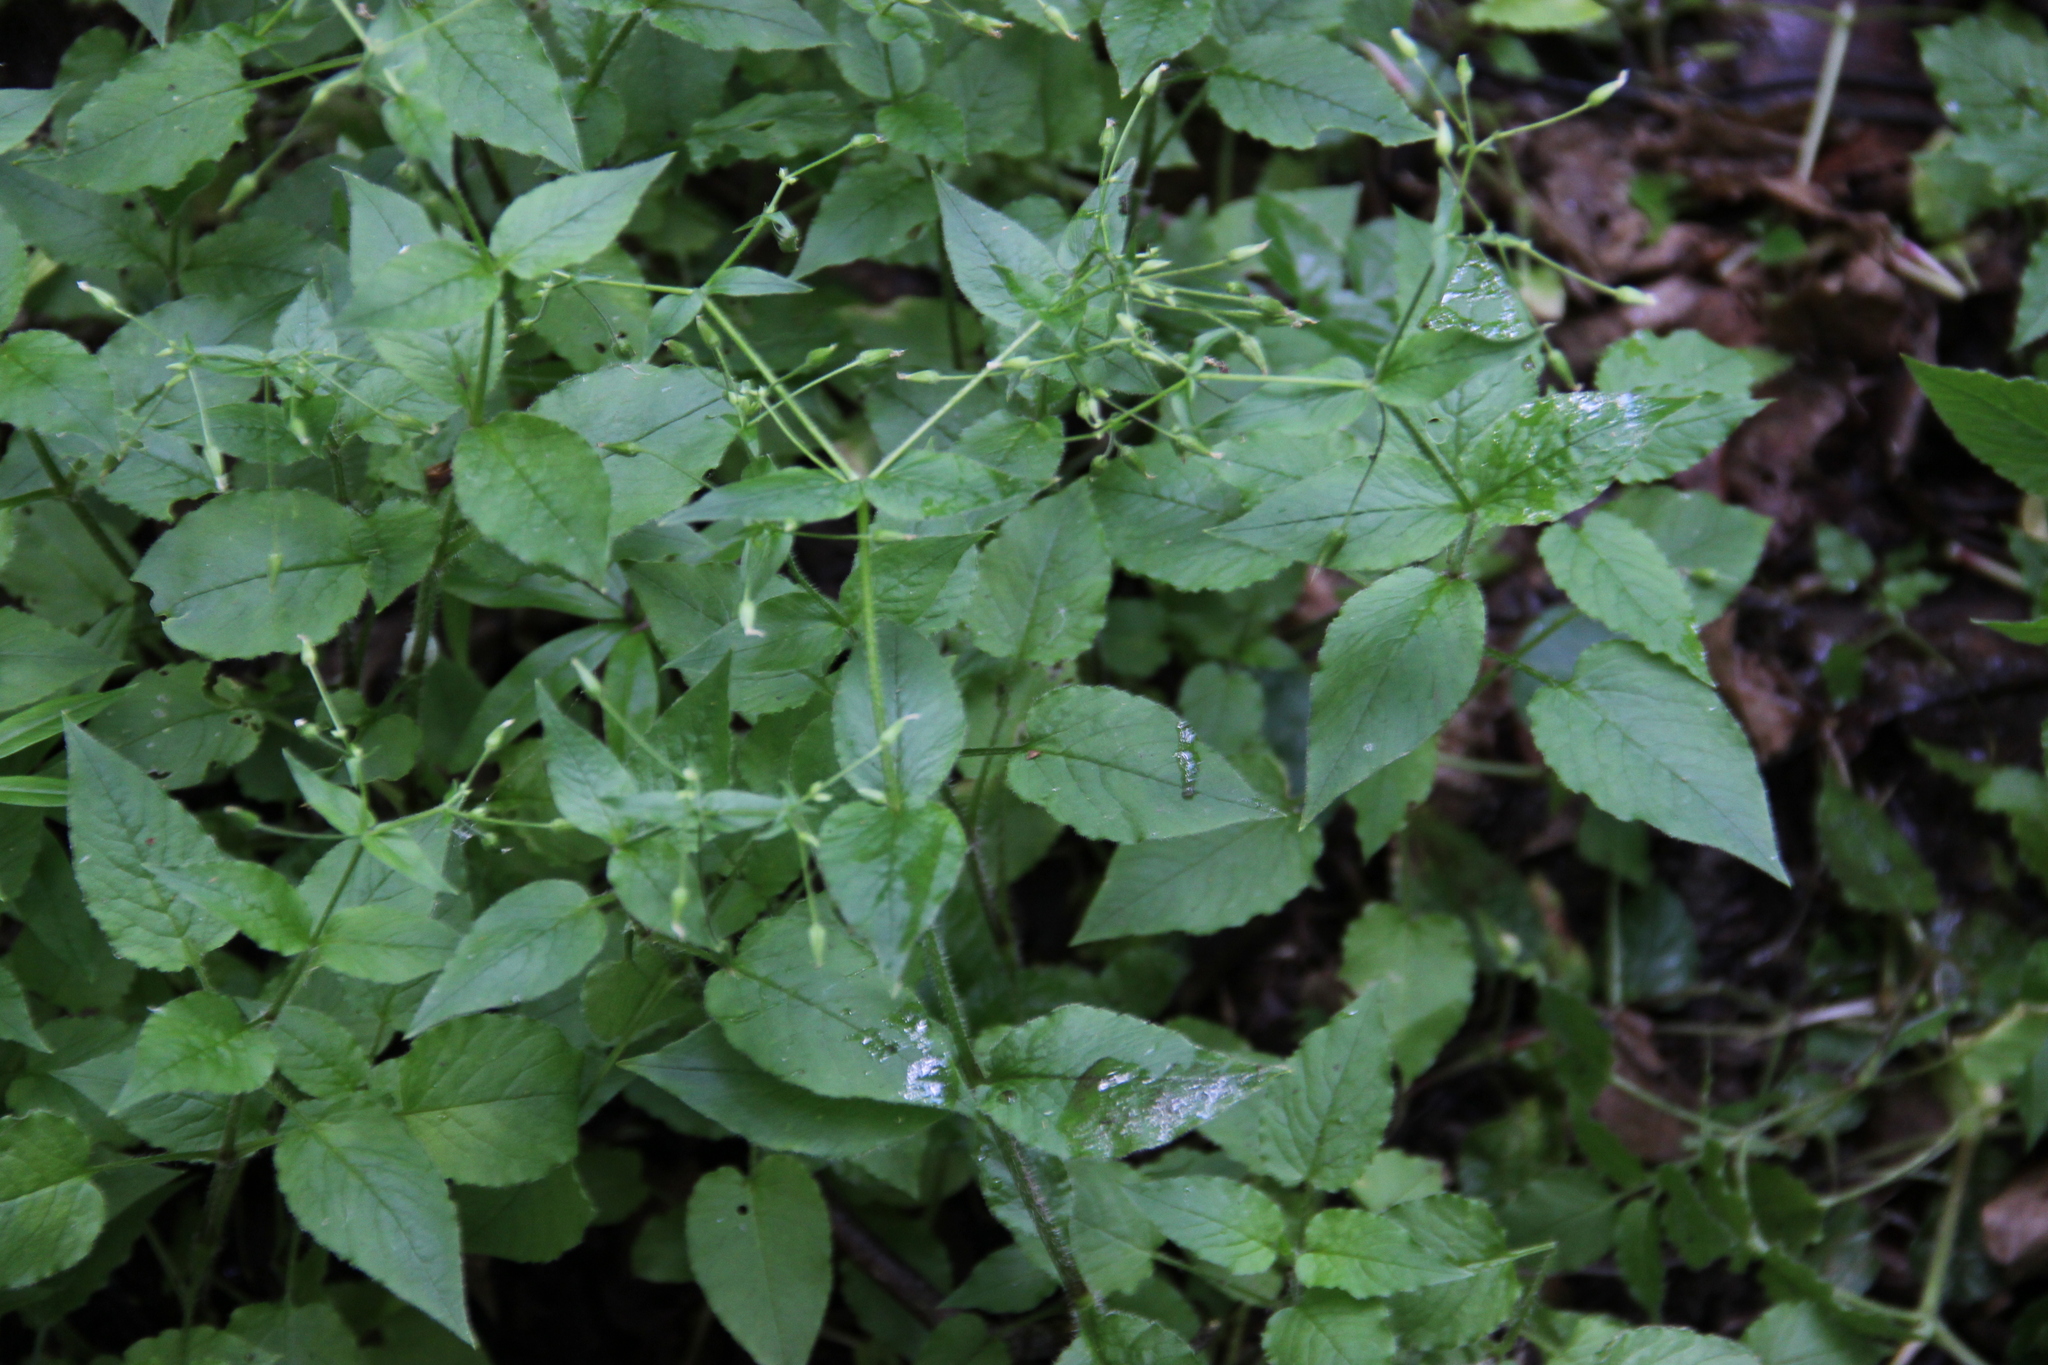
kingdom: Plantae
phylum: Tracheophyta
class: Magnoliopsida
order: Caryophyllales
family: Caryophyllaceae
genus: Stellaria
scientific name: Stellaria nemorum
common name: Wood stitchwort
